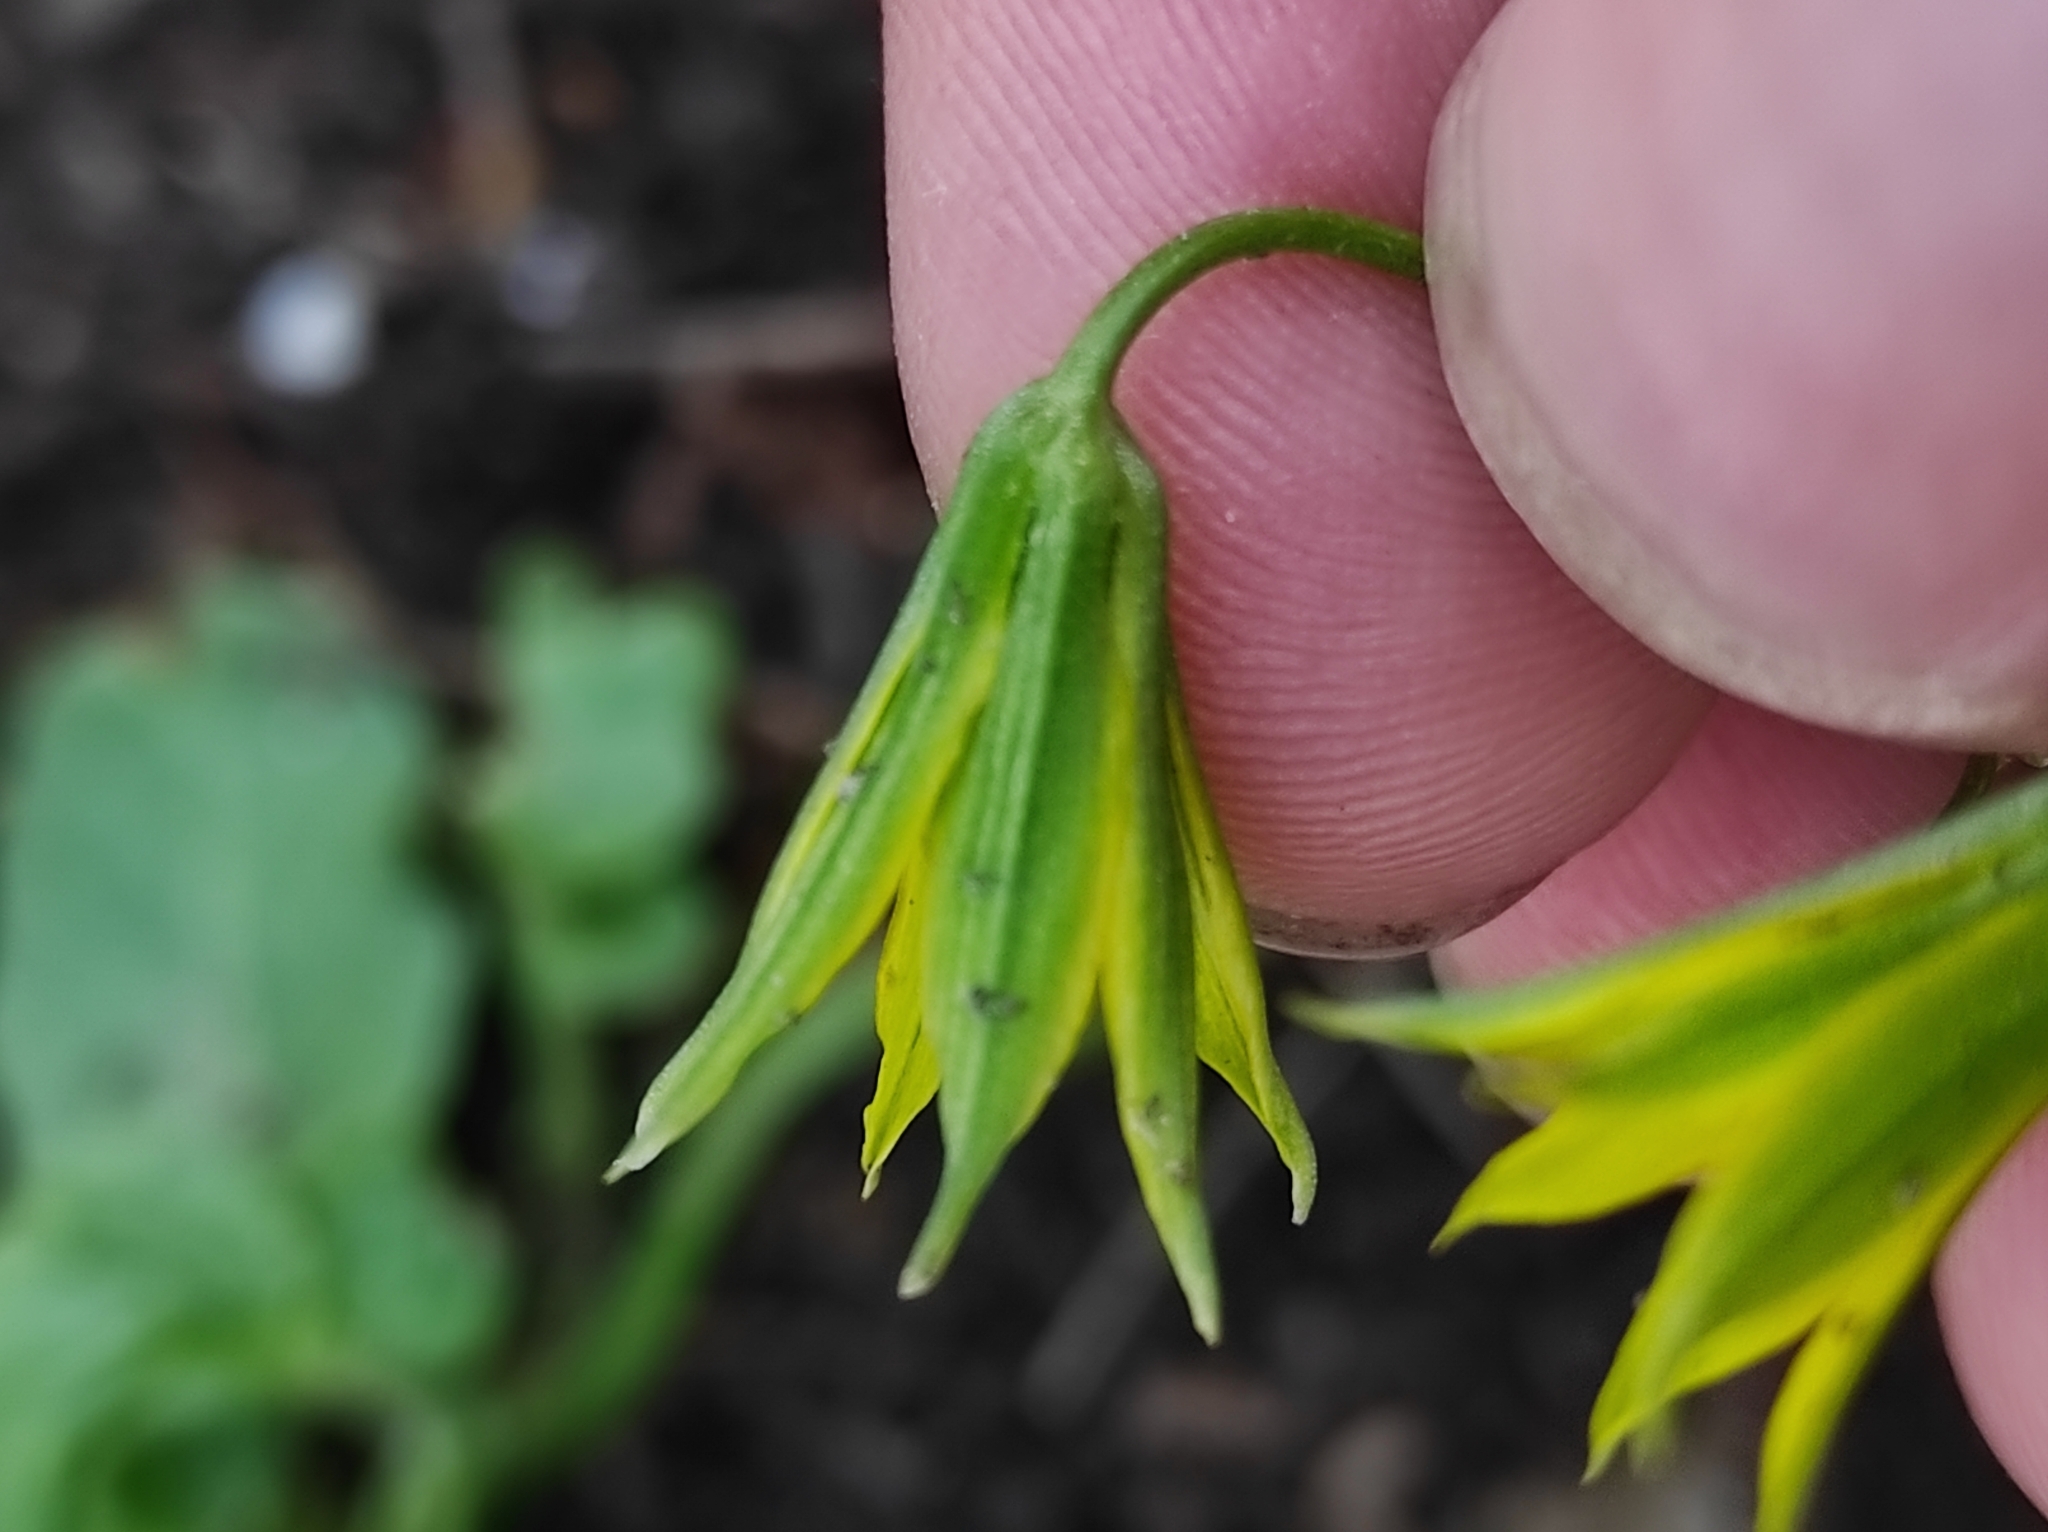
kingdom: Plantae
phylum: Tracheophyta
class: Liliopsida
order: Liliales
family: Liliaceae
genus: Gagea
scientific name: Gagea minima
